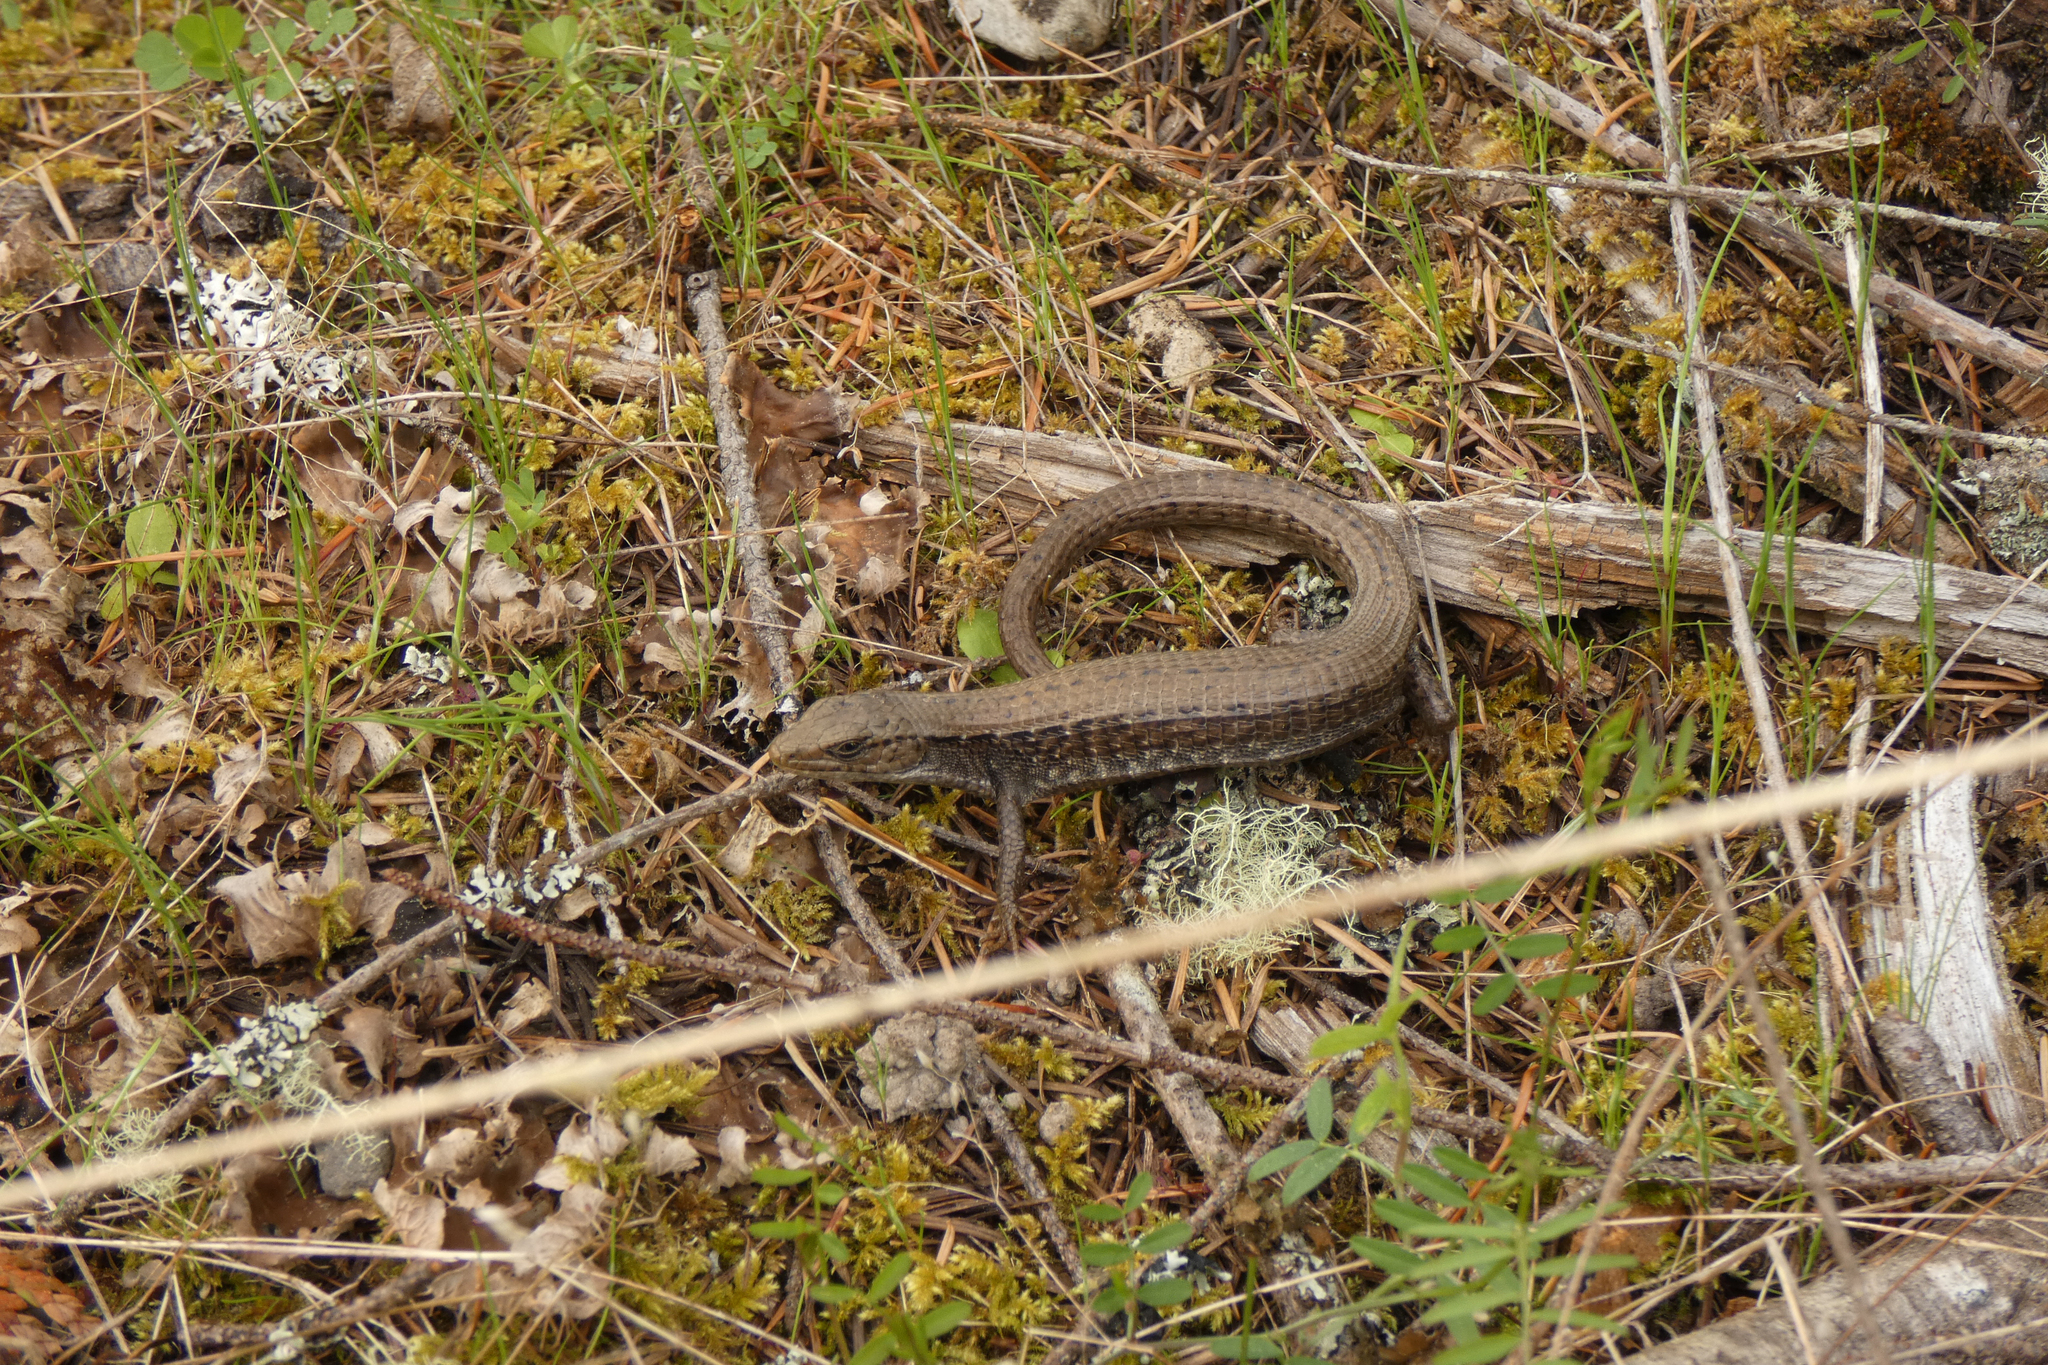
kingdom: Animalia
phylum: Chordata
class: Squamata
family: Anguidae
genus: Elgaria
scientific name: Elgaria coerulea
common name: Northern alligator lizard
